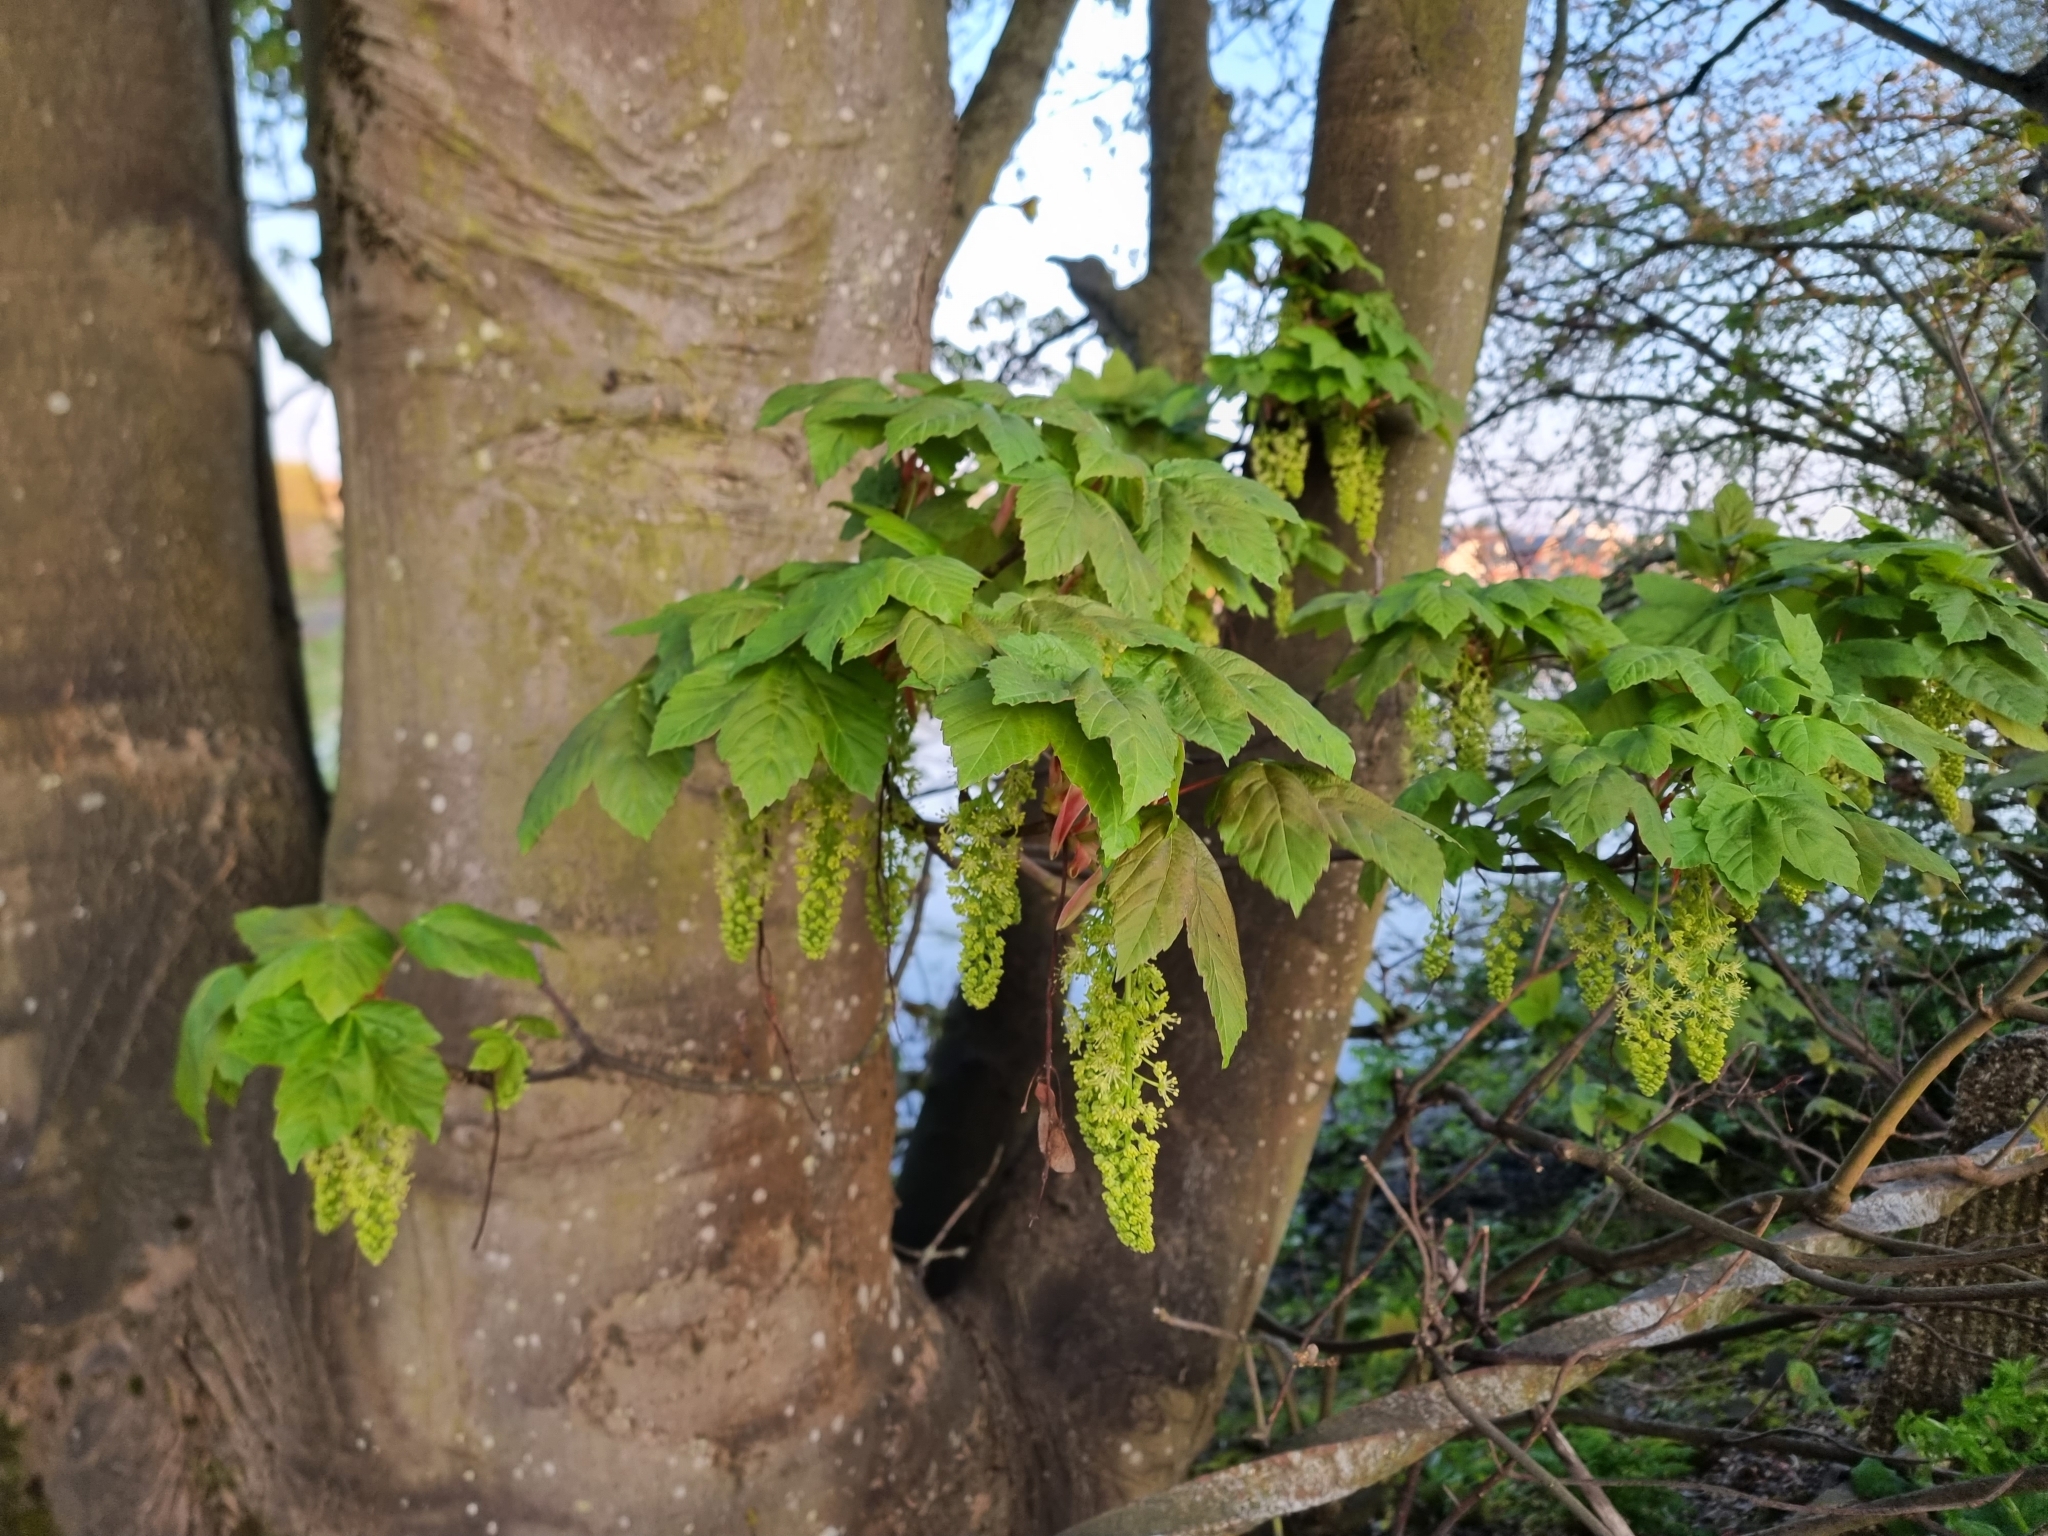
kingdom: Plantae
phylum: Tracheophyta
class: Magnoliopsida
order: Sapindales
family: Sapindaceae
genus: Acer
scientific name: Acer pseudoplatanus
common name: Sycamore
